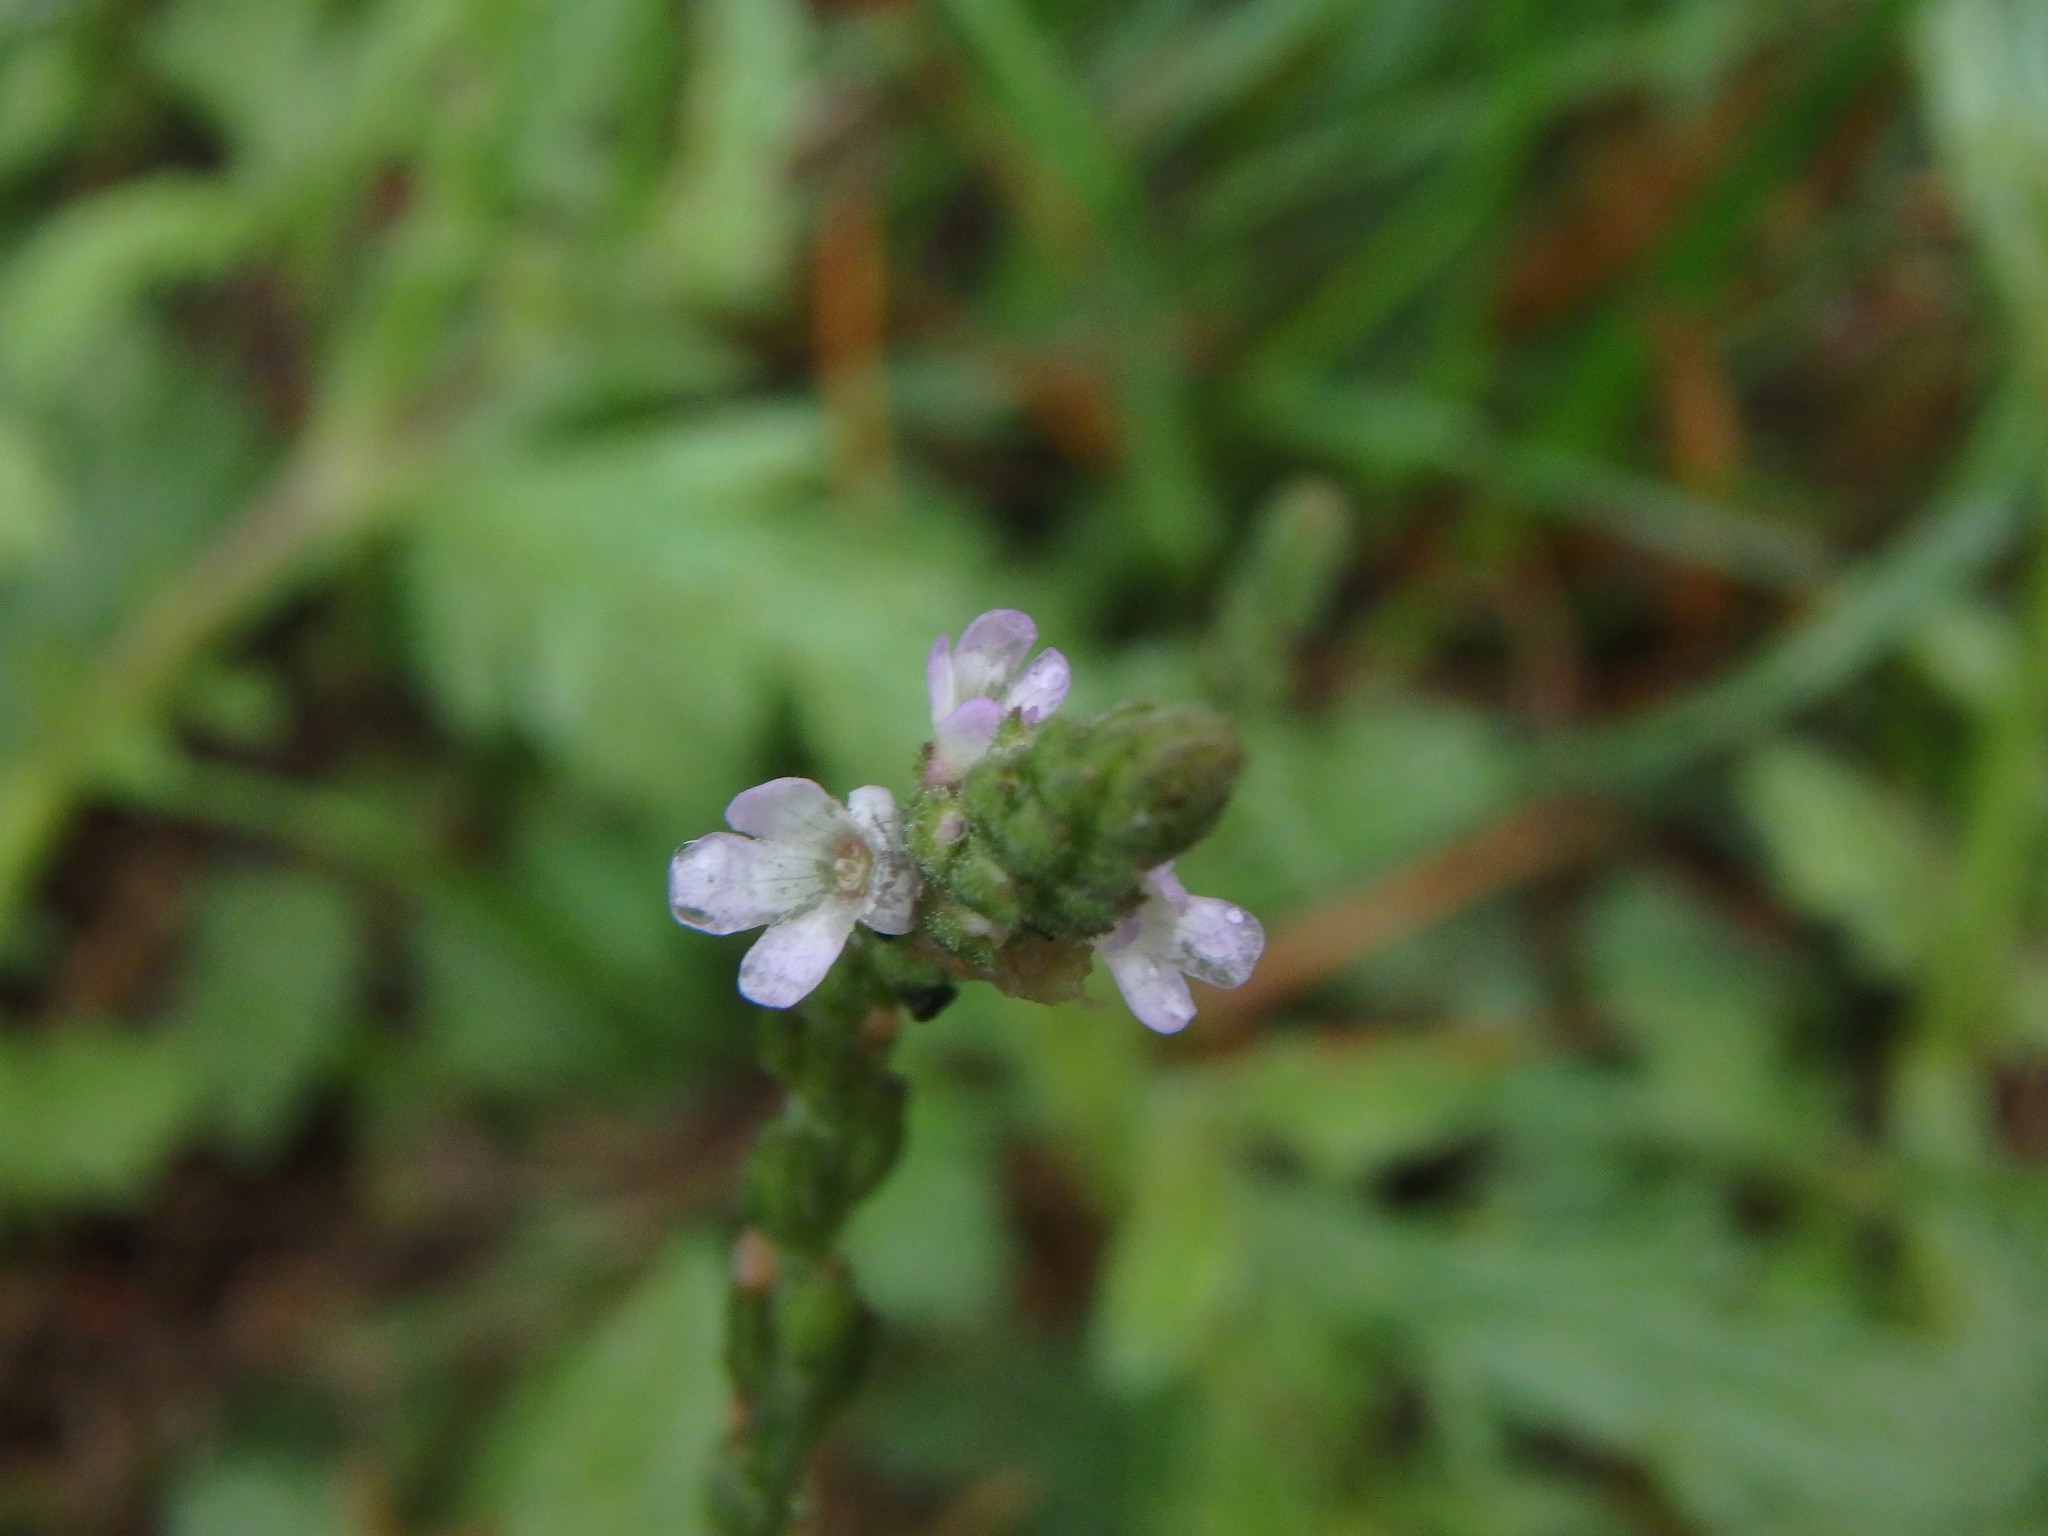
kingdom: Plantae
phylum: Tracheophyta
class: Magnoliopsida
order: Lamiales
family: Verbenaceae
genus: Verbena
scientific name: Verbena officinalis
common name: Vervain
